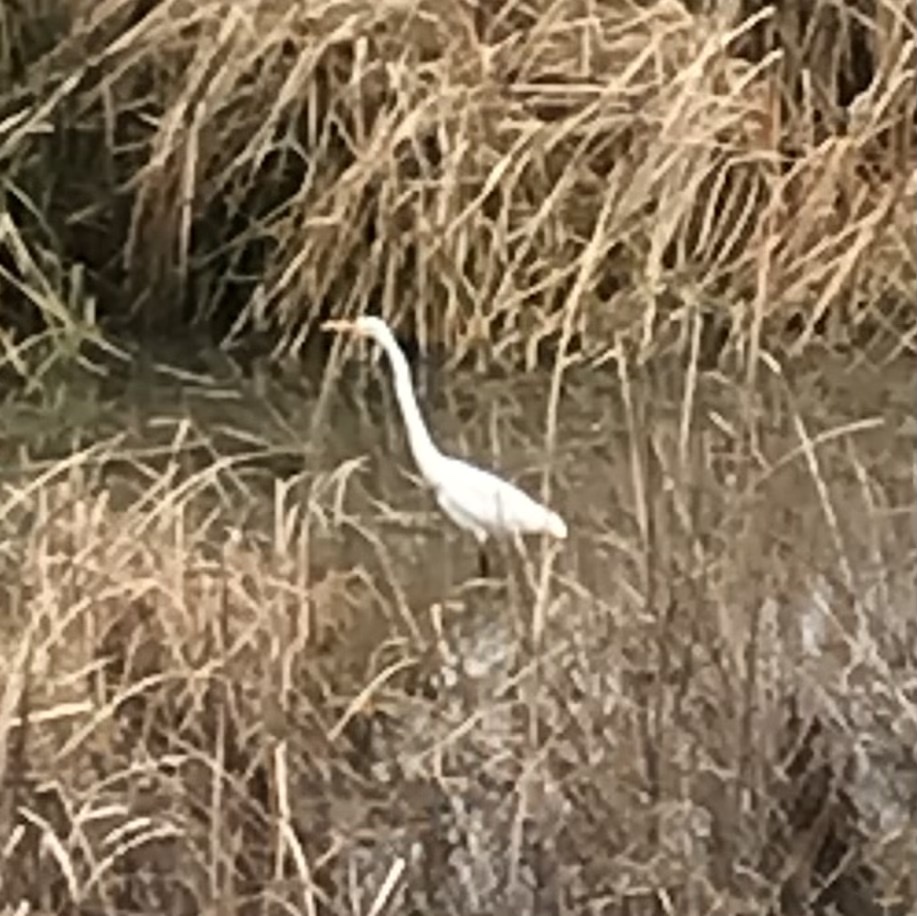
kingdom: Animalia
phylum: Chordata
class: Aves
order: Pelecaniformes
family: Ardeidae
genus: Ardea
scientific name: Ardea alba
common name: Great egret
